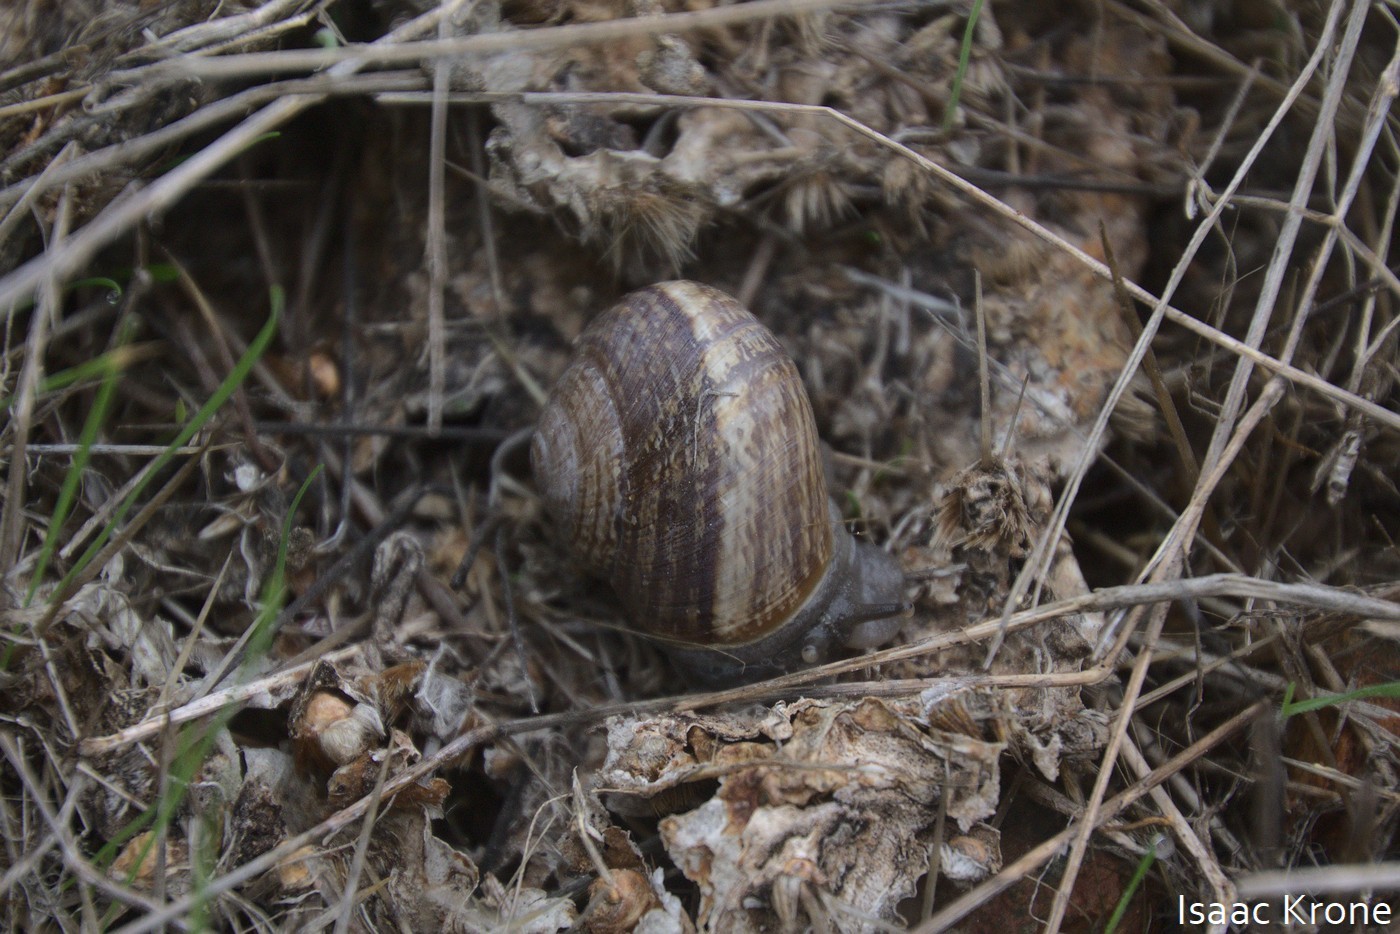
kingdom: Animalia
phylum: Mollusca
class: Gastropoda
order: Stylommatophora
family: Helicidae
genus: Otala
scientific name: Otala lactea
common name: Milk snail
